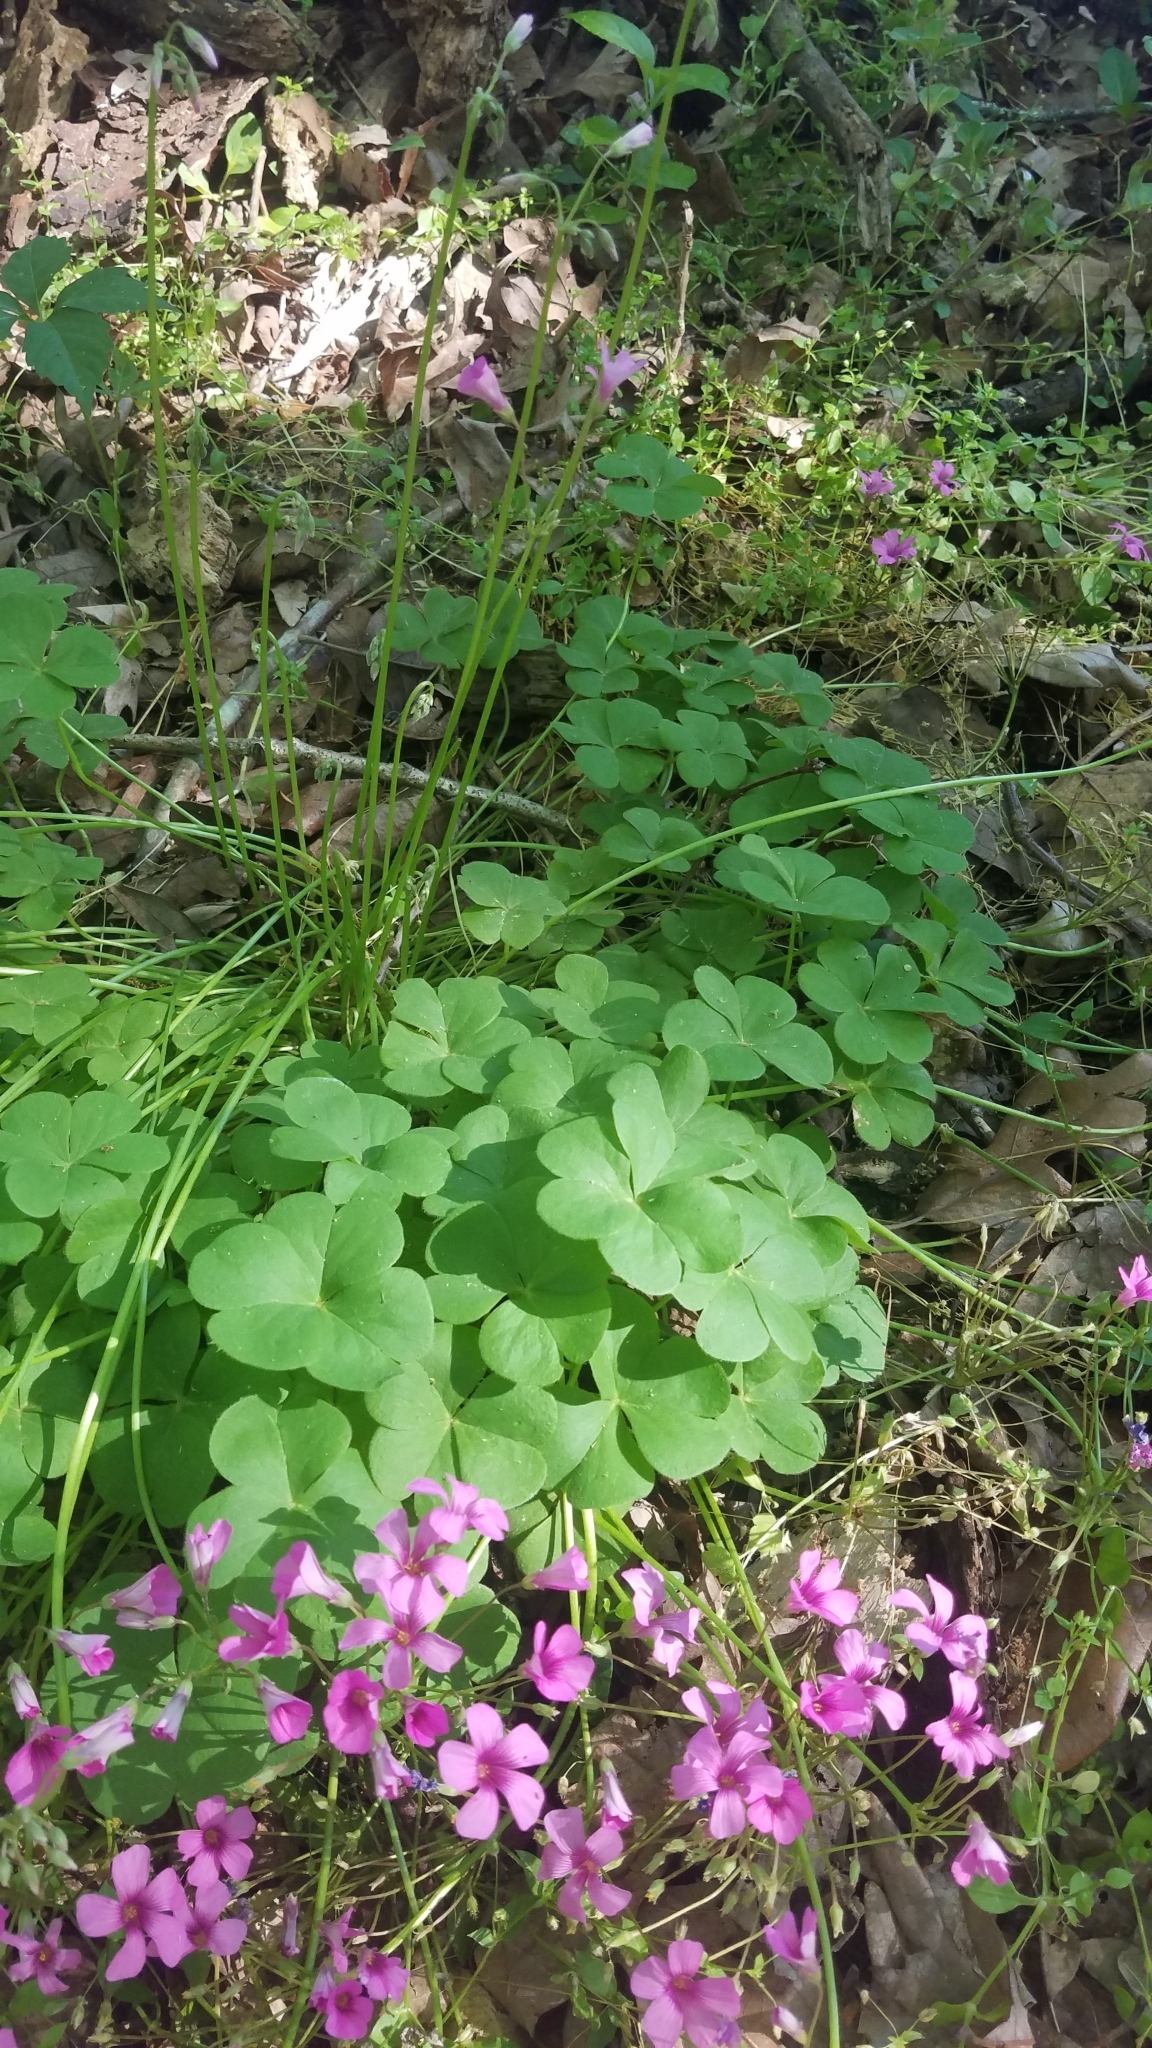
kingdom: Plantae
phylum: Tracheophyta
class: Magnoliopsida
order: Oxalidales
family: Oxalidaceae
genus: Oxalis
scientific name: Oxalis articulata
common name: Pink-sorrel
